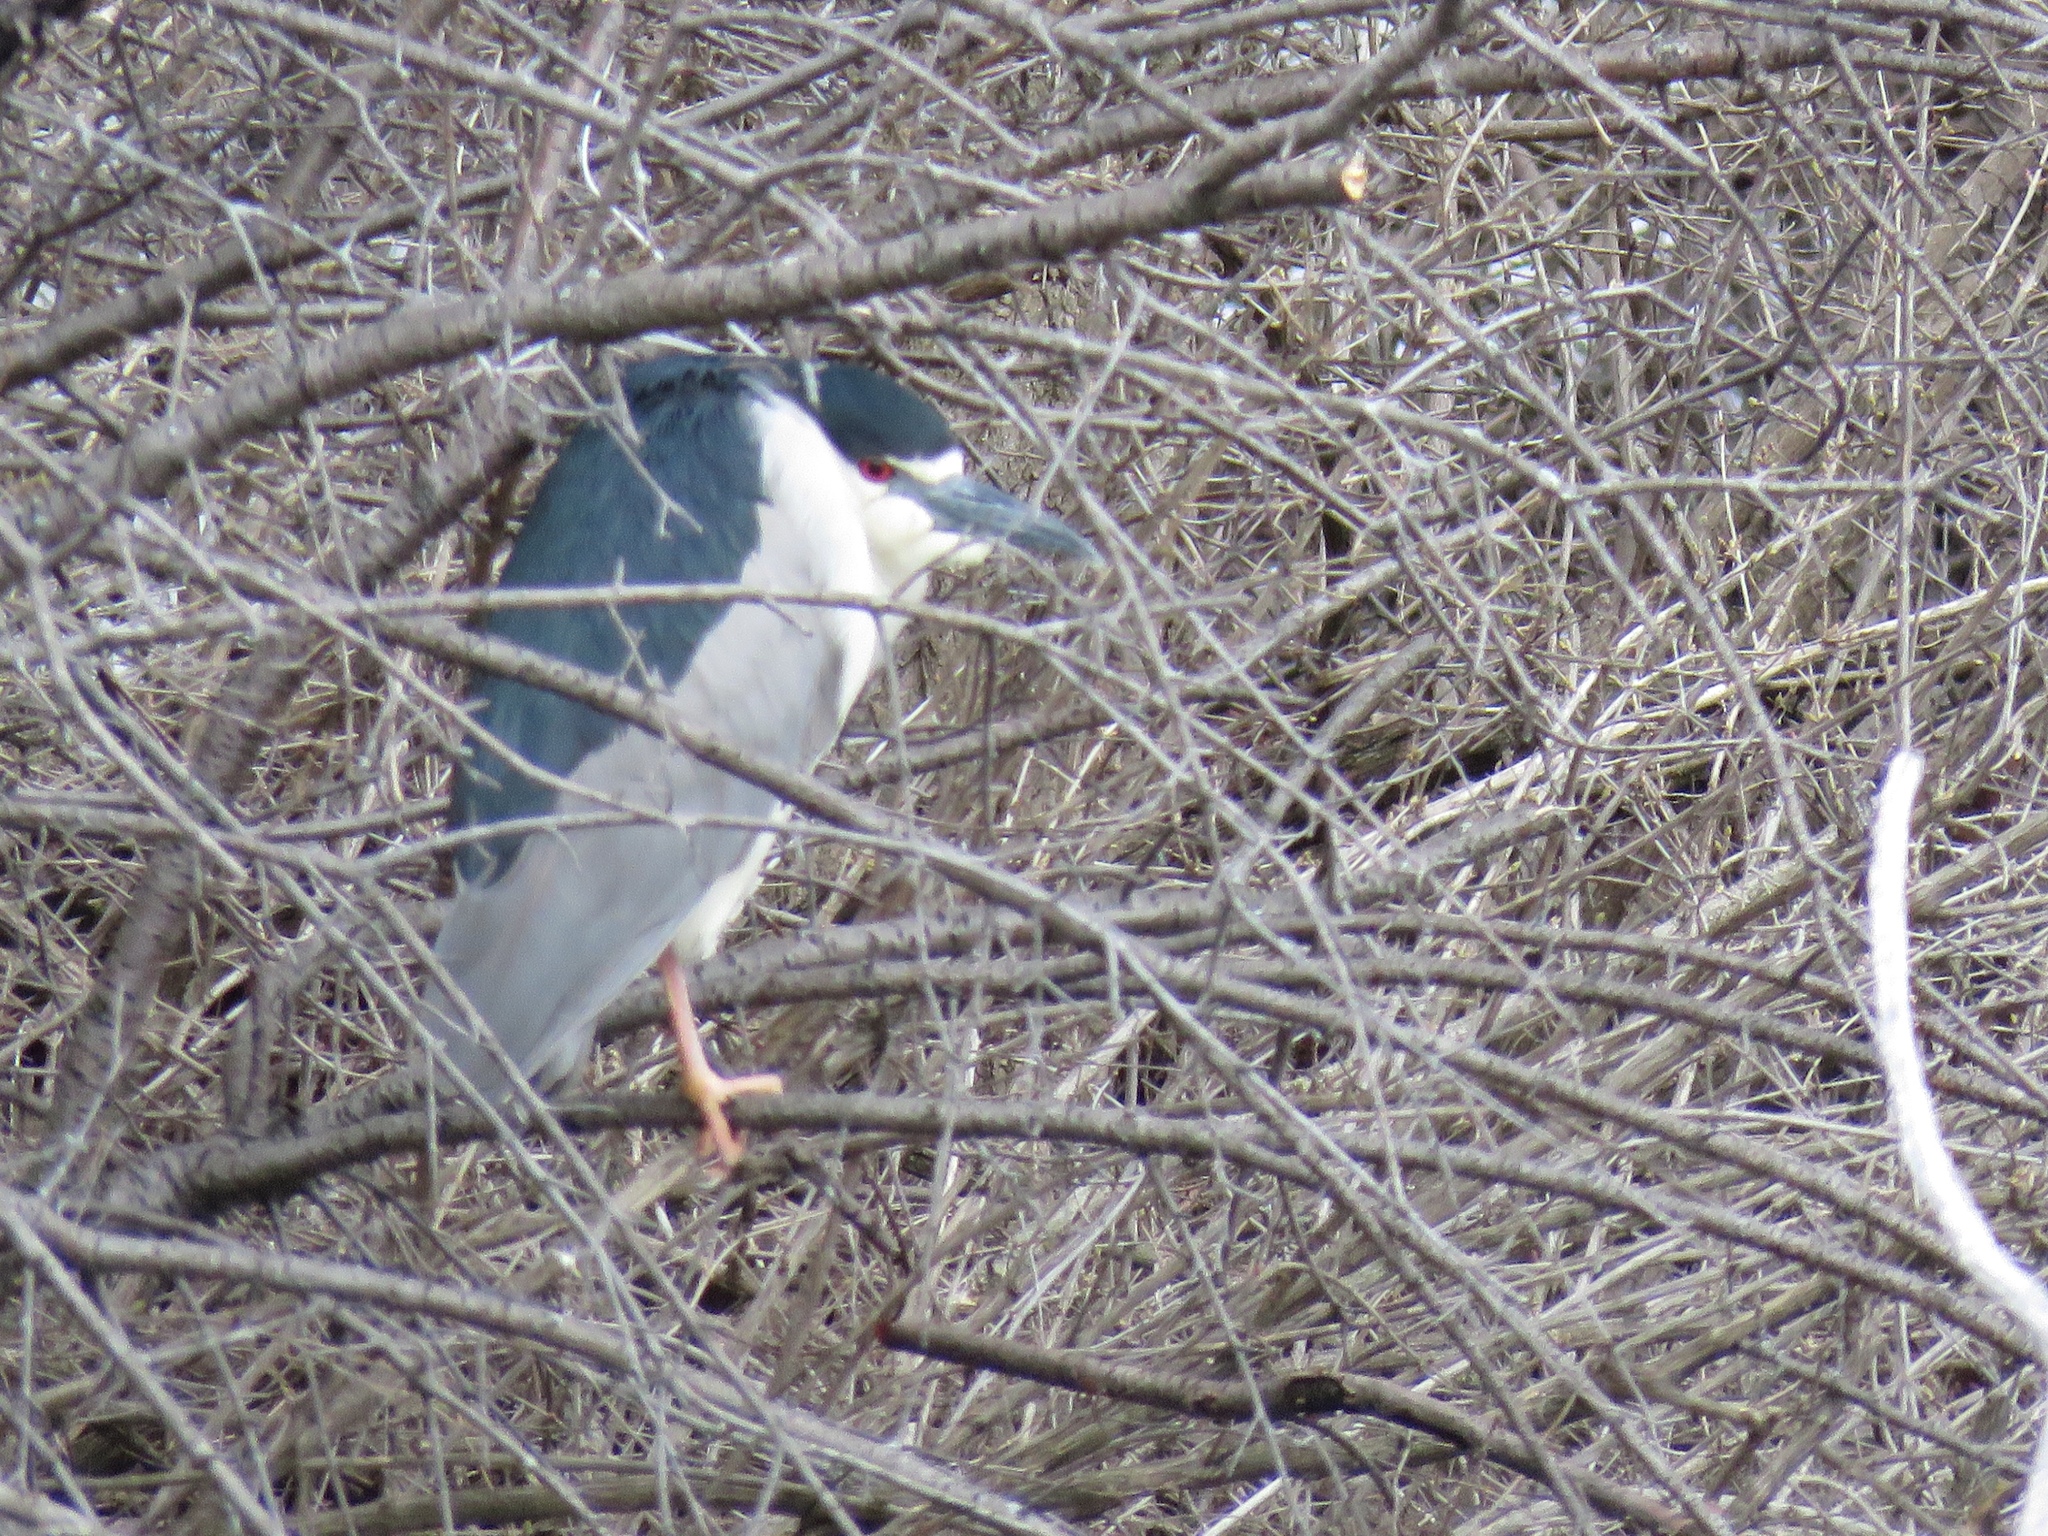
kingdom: Animalia
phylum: Chordata
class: Aves
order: Pelecaniformes
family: Ardeidae
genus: Nycticorax
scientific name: Nycticorax nycticorax
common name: Black-crowned night heron
